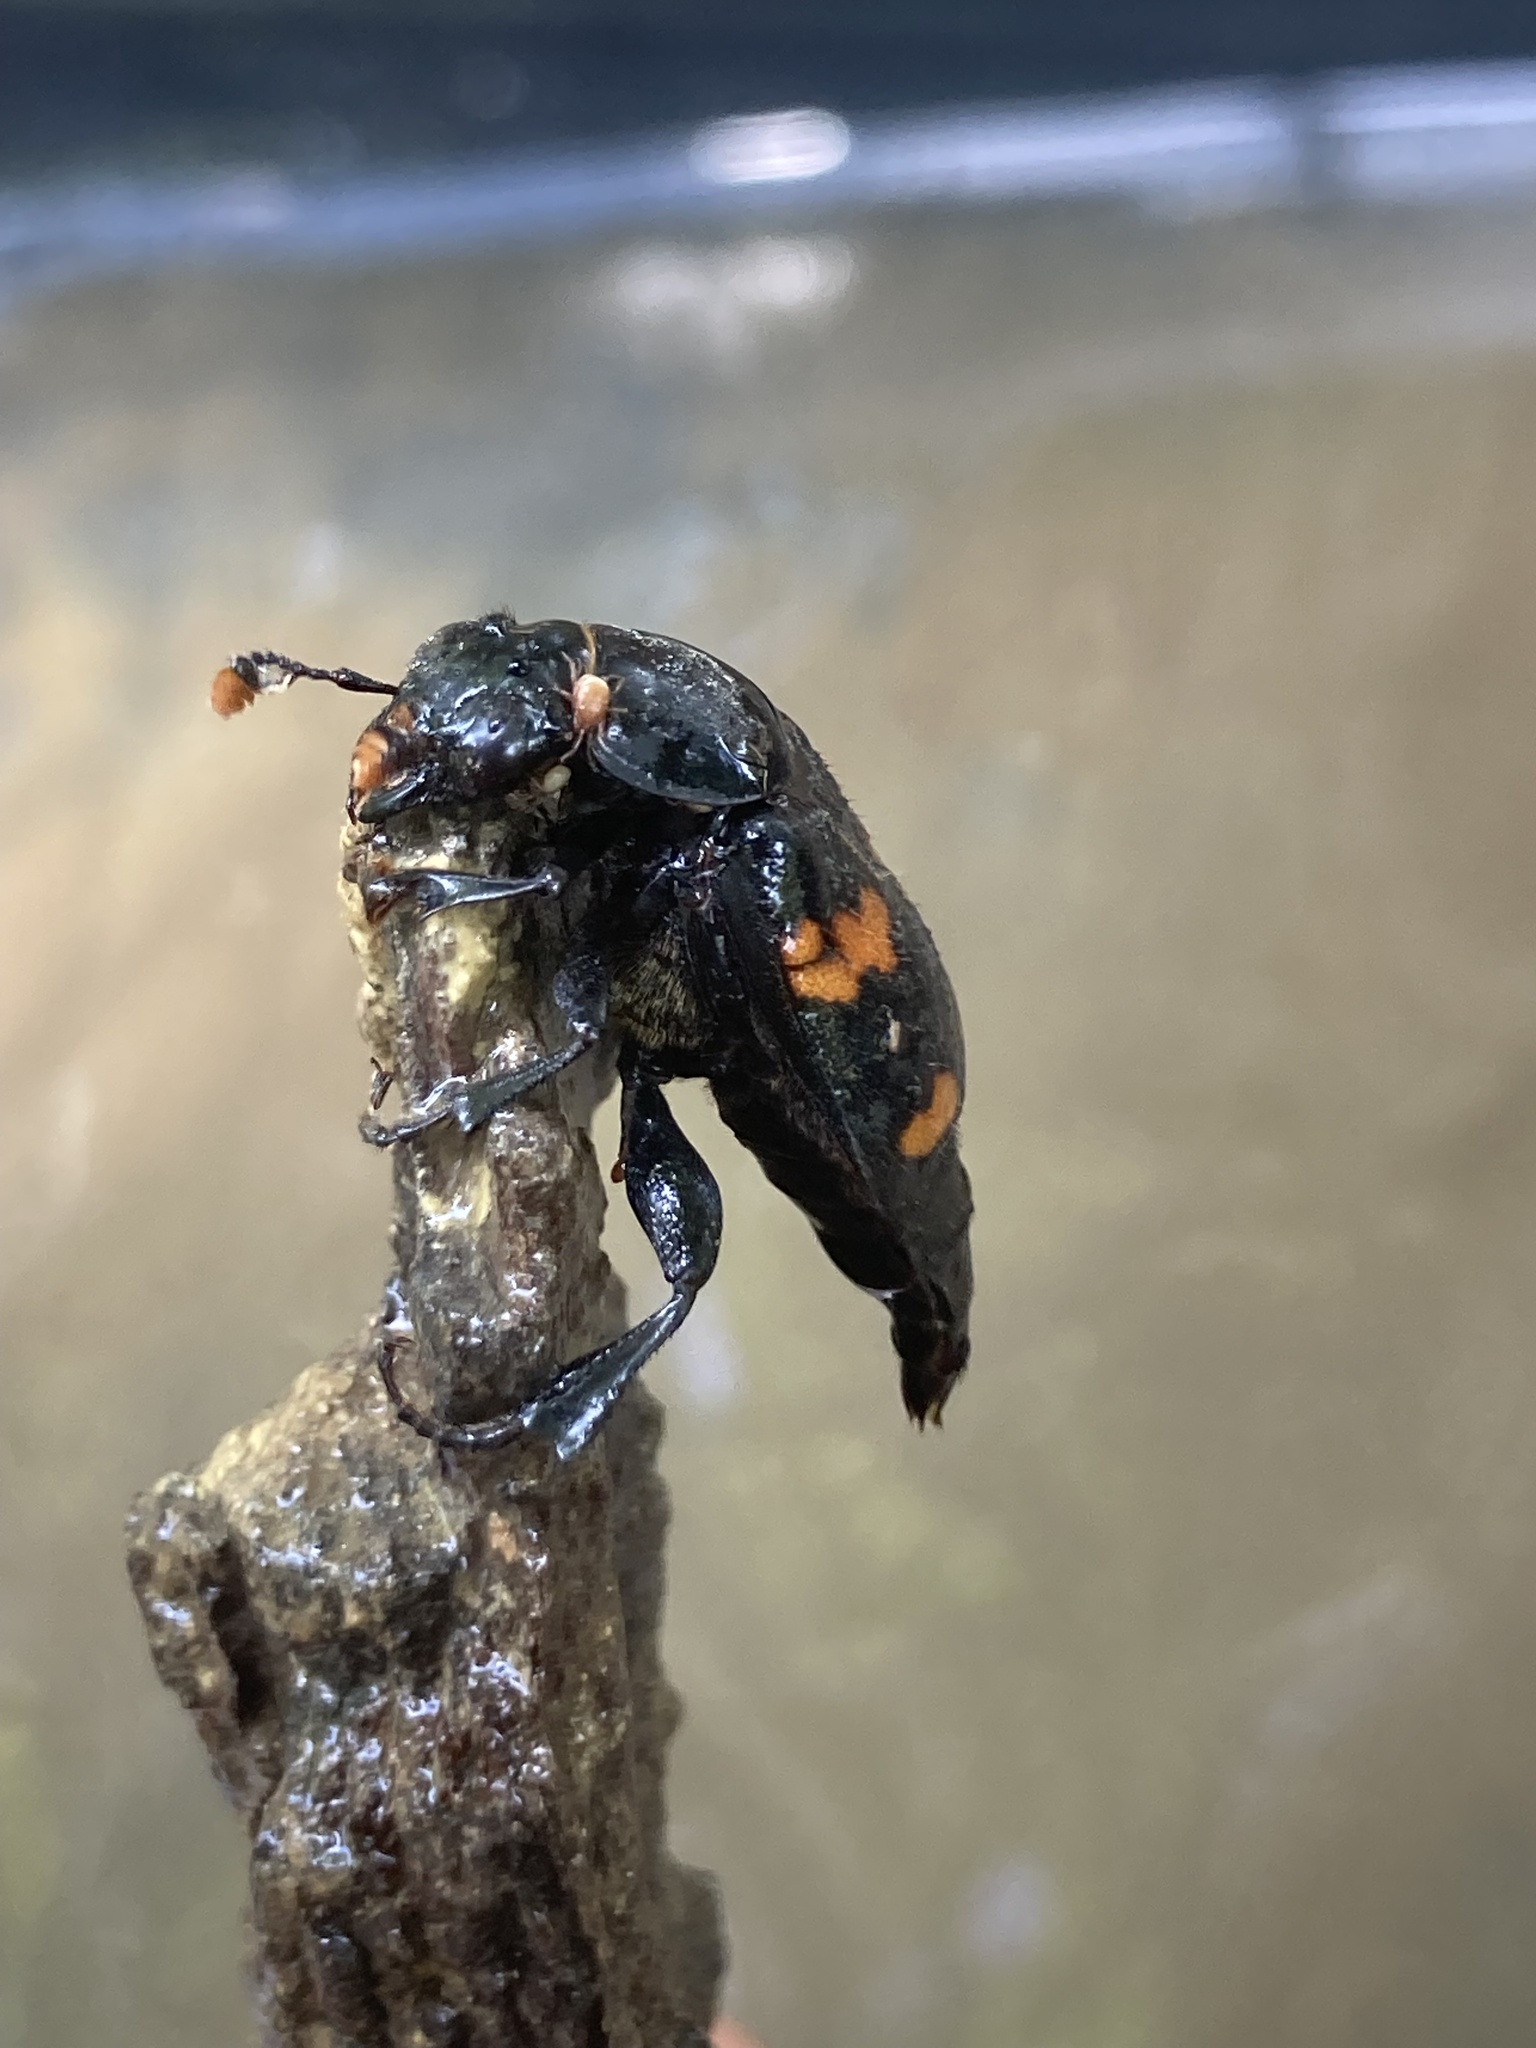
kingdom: Animalia
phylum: Arthropoda
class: Insecta
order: Coleoptera
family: Staphylinidae
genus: Nicrophorus
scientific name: Nicrophorus orbicollis
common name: Roundneck sexton beetle
